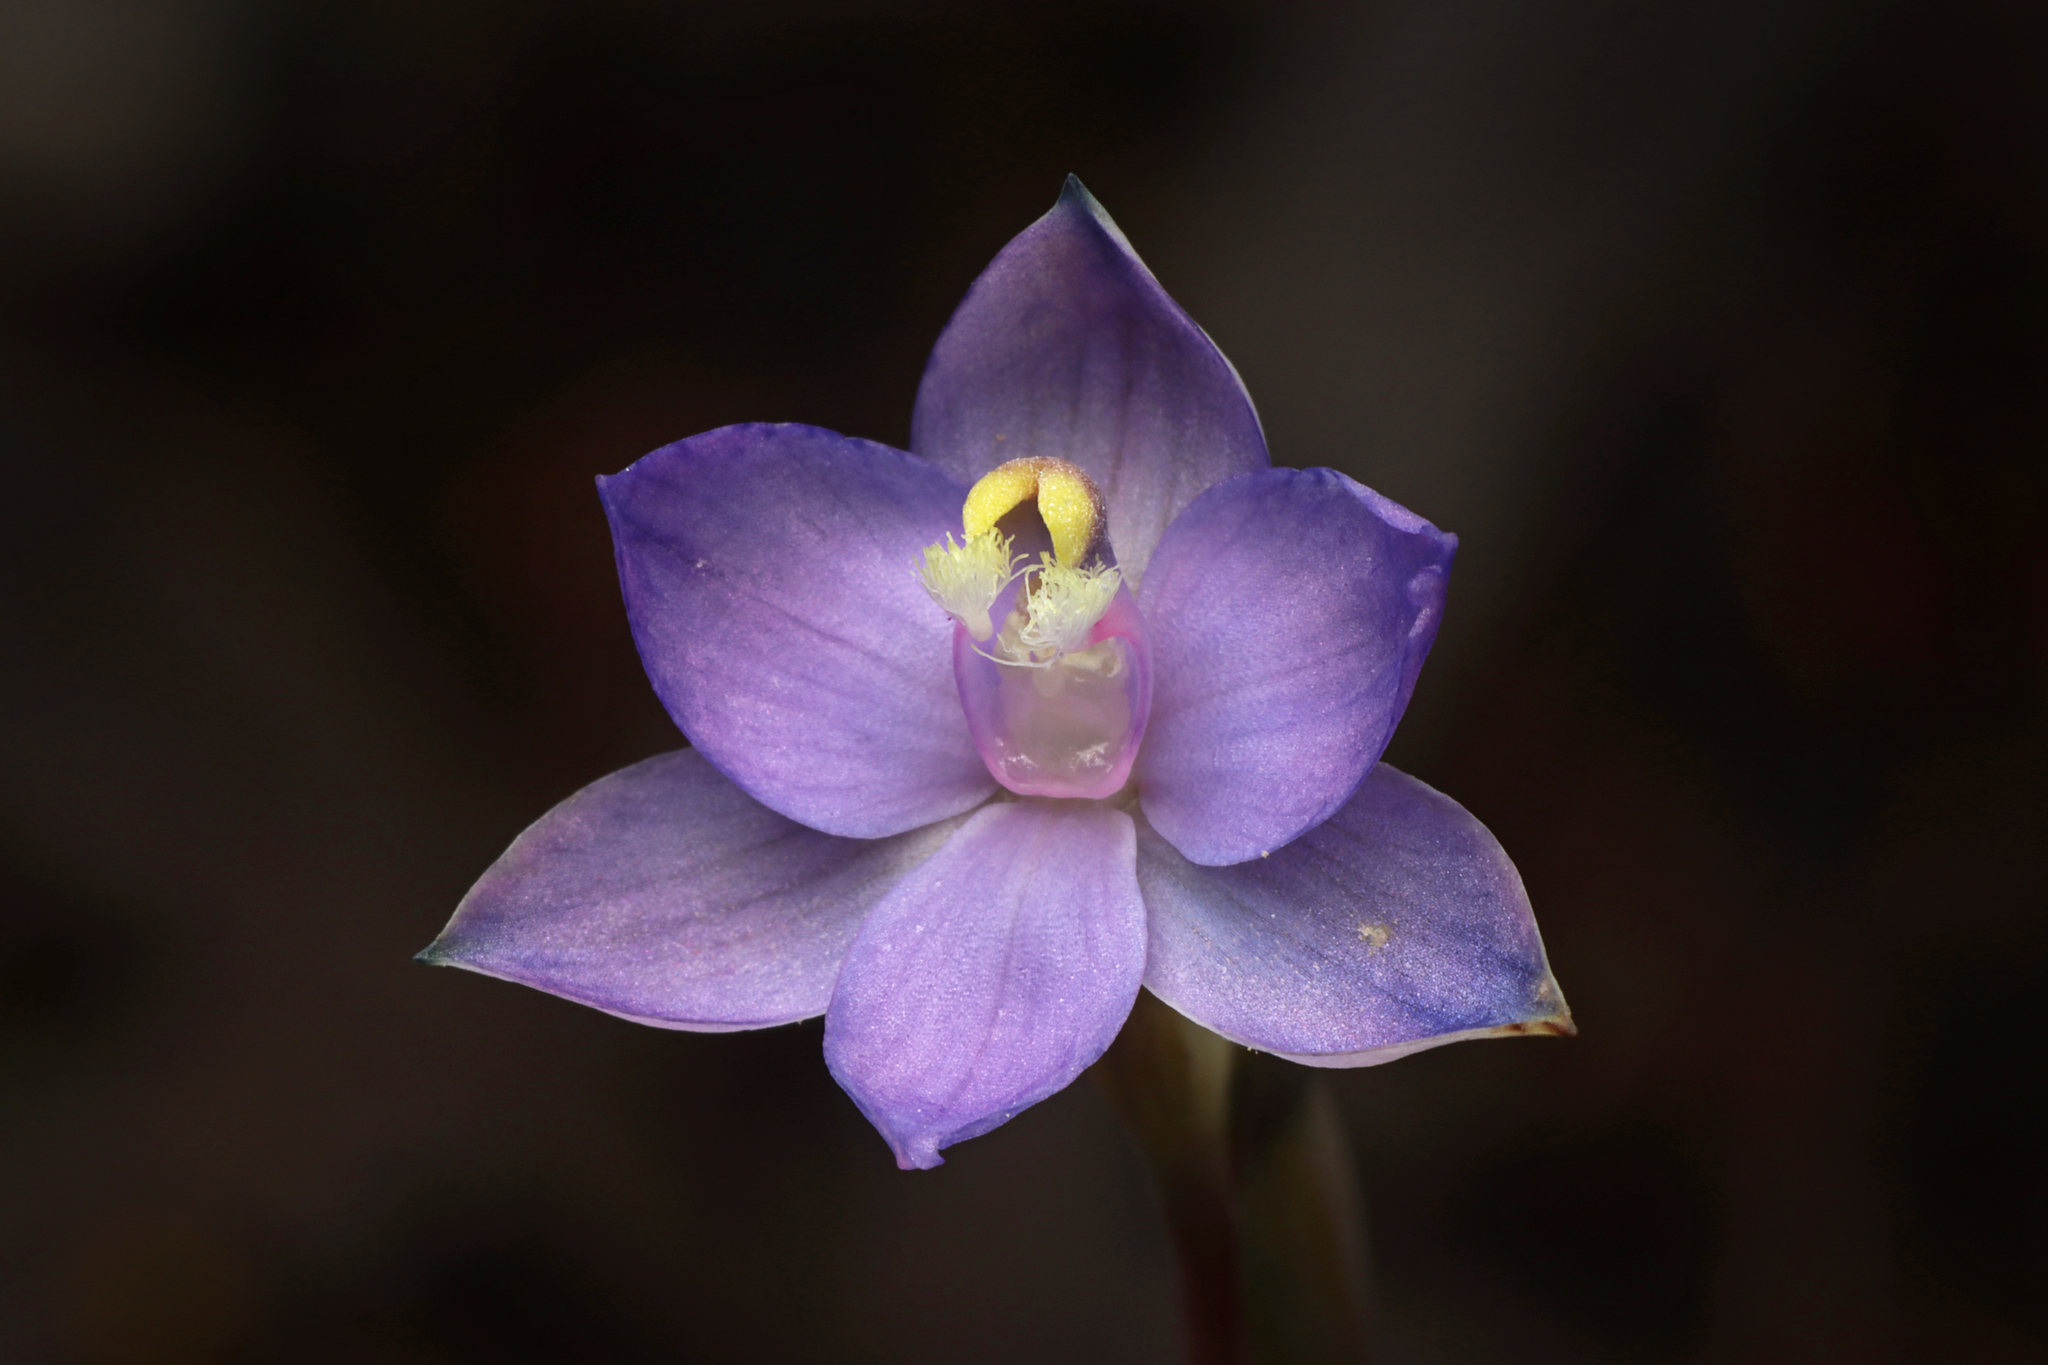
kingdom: Plantae
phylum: Tracheophyta
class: Liliopsida
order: Asparagales
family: Orchidaceae
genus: Thelymitra
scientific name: Thelymitra inflata
